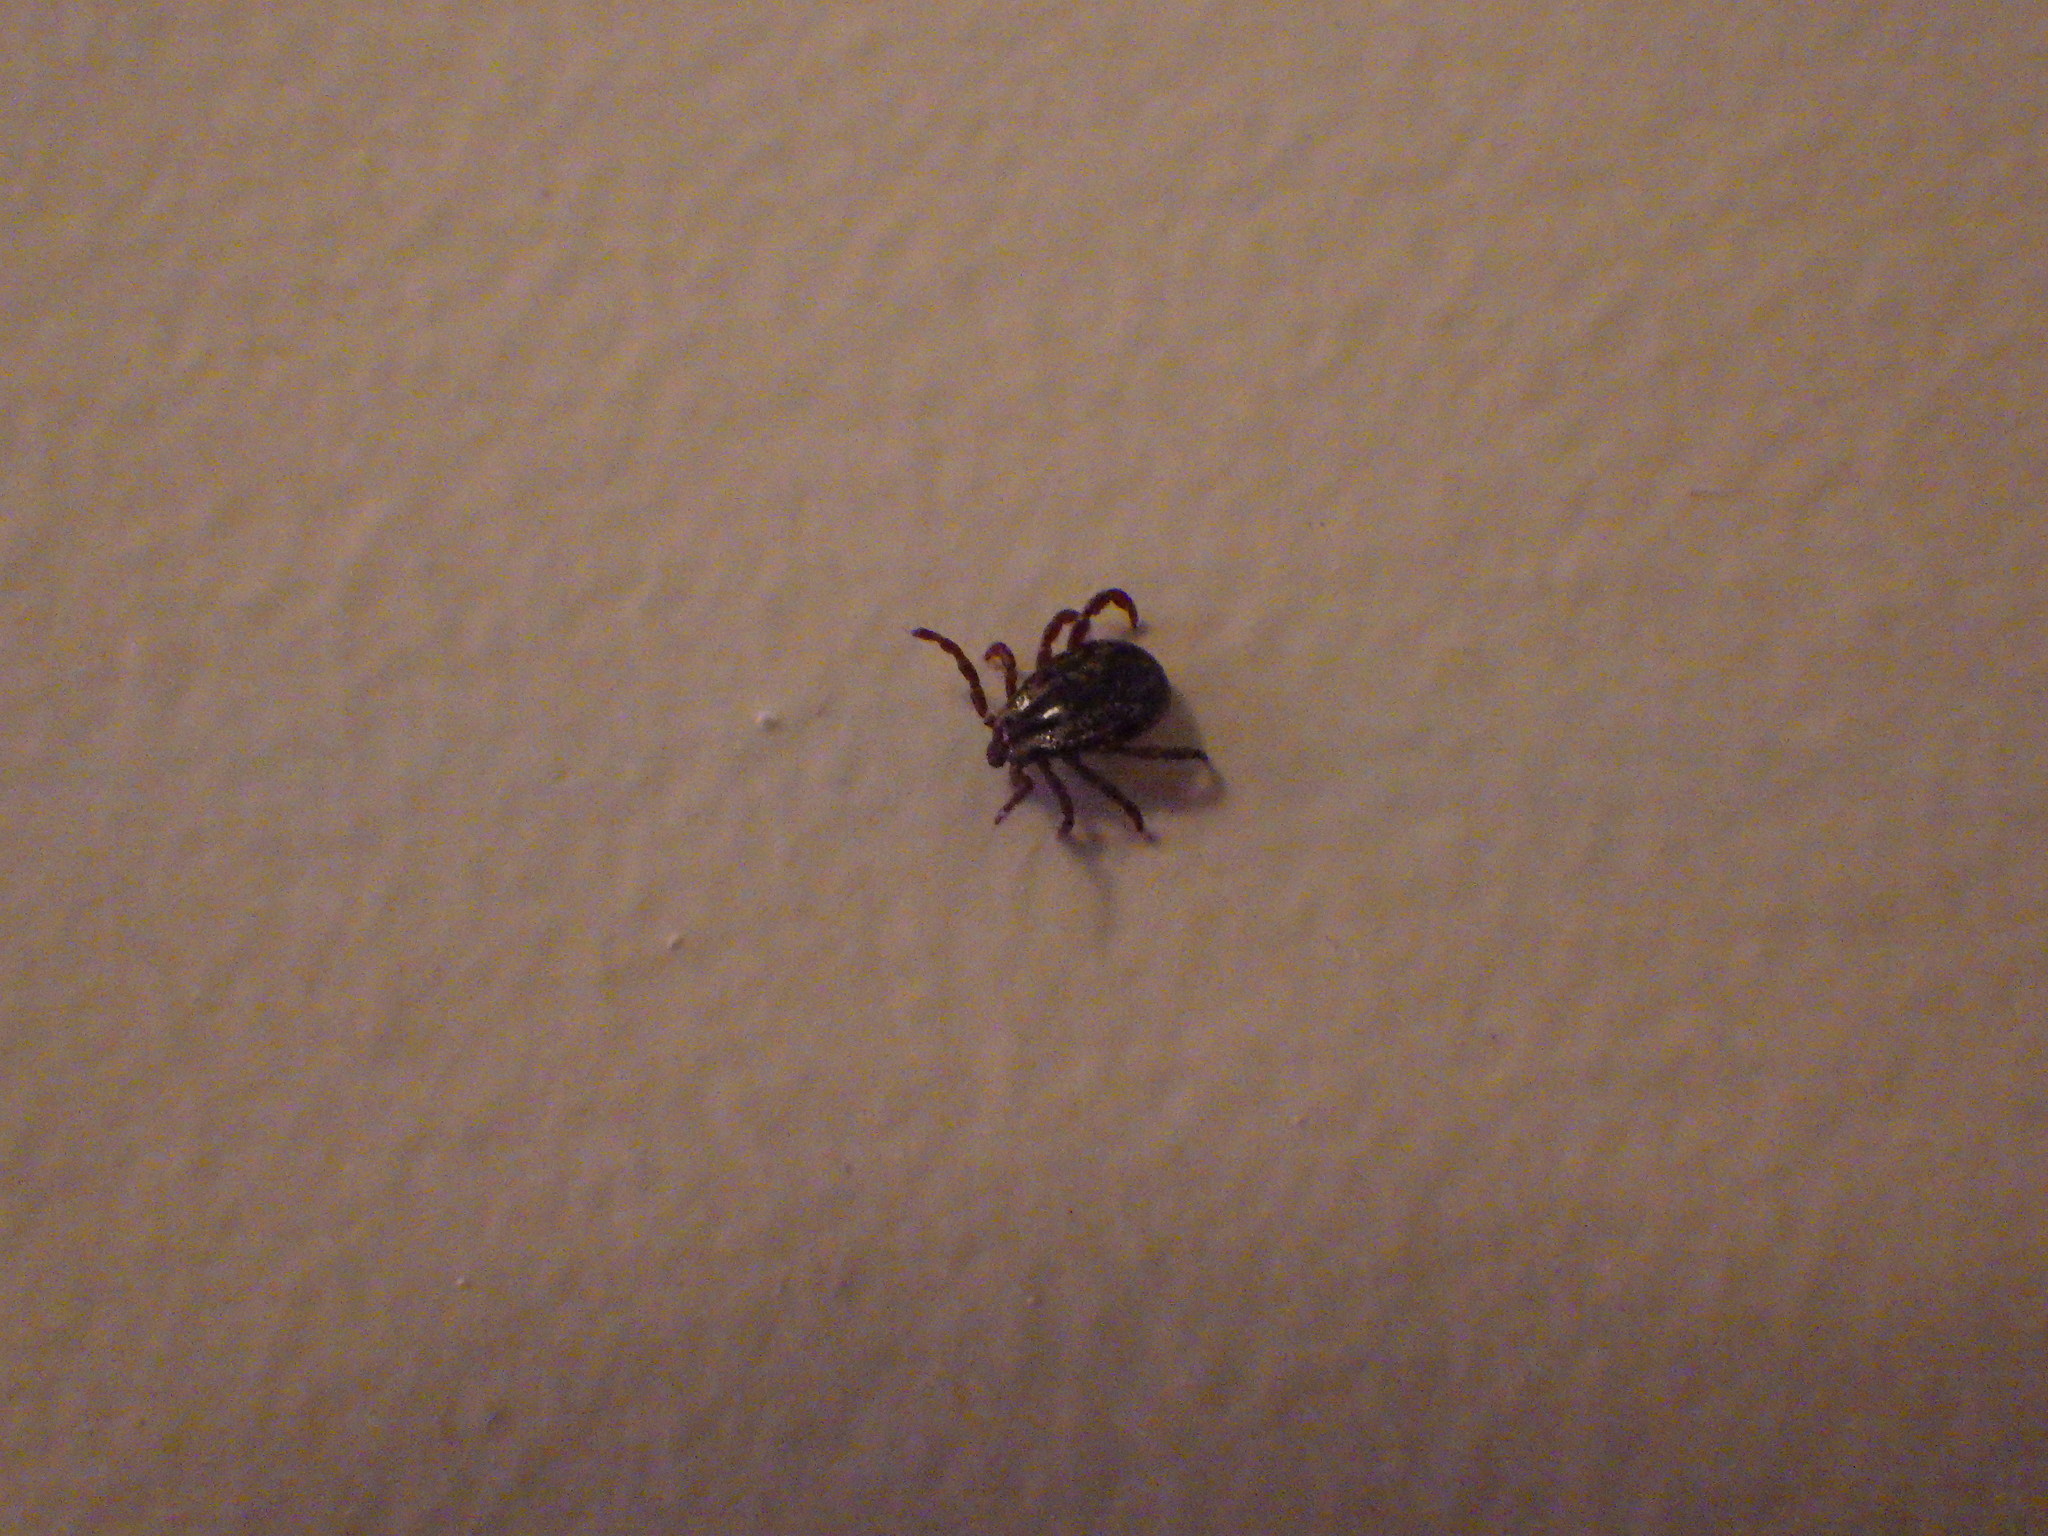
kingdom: Animalia
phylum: Arthropoda
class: Arachnida
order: Ixodida
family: Ixodidae
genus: Dermacentor
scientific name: Dermacentor variabilis
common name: American dog tick
